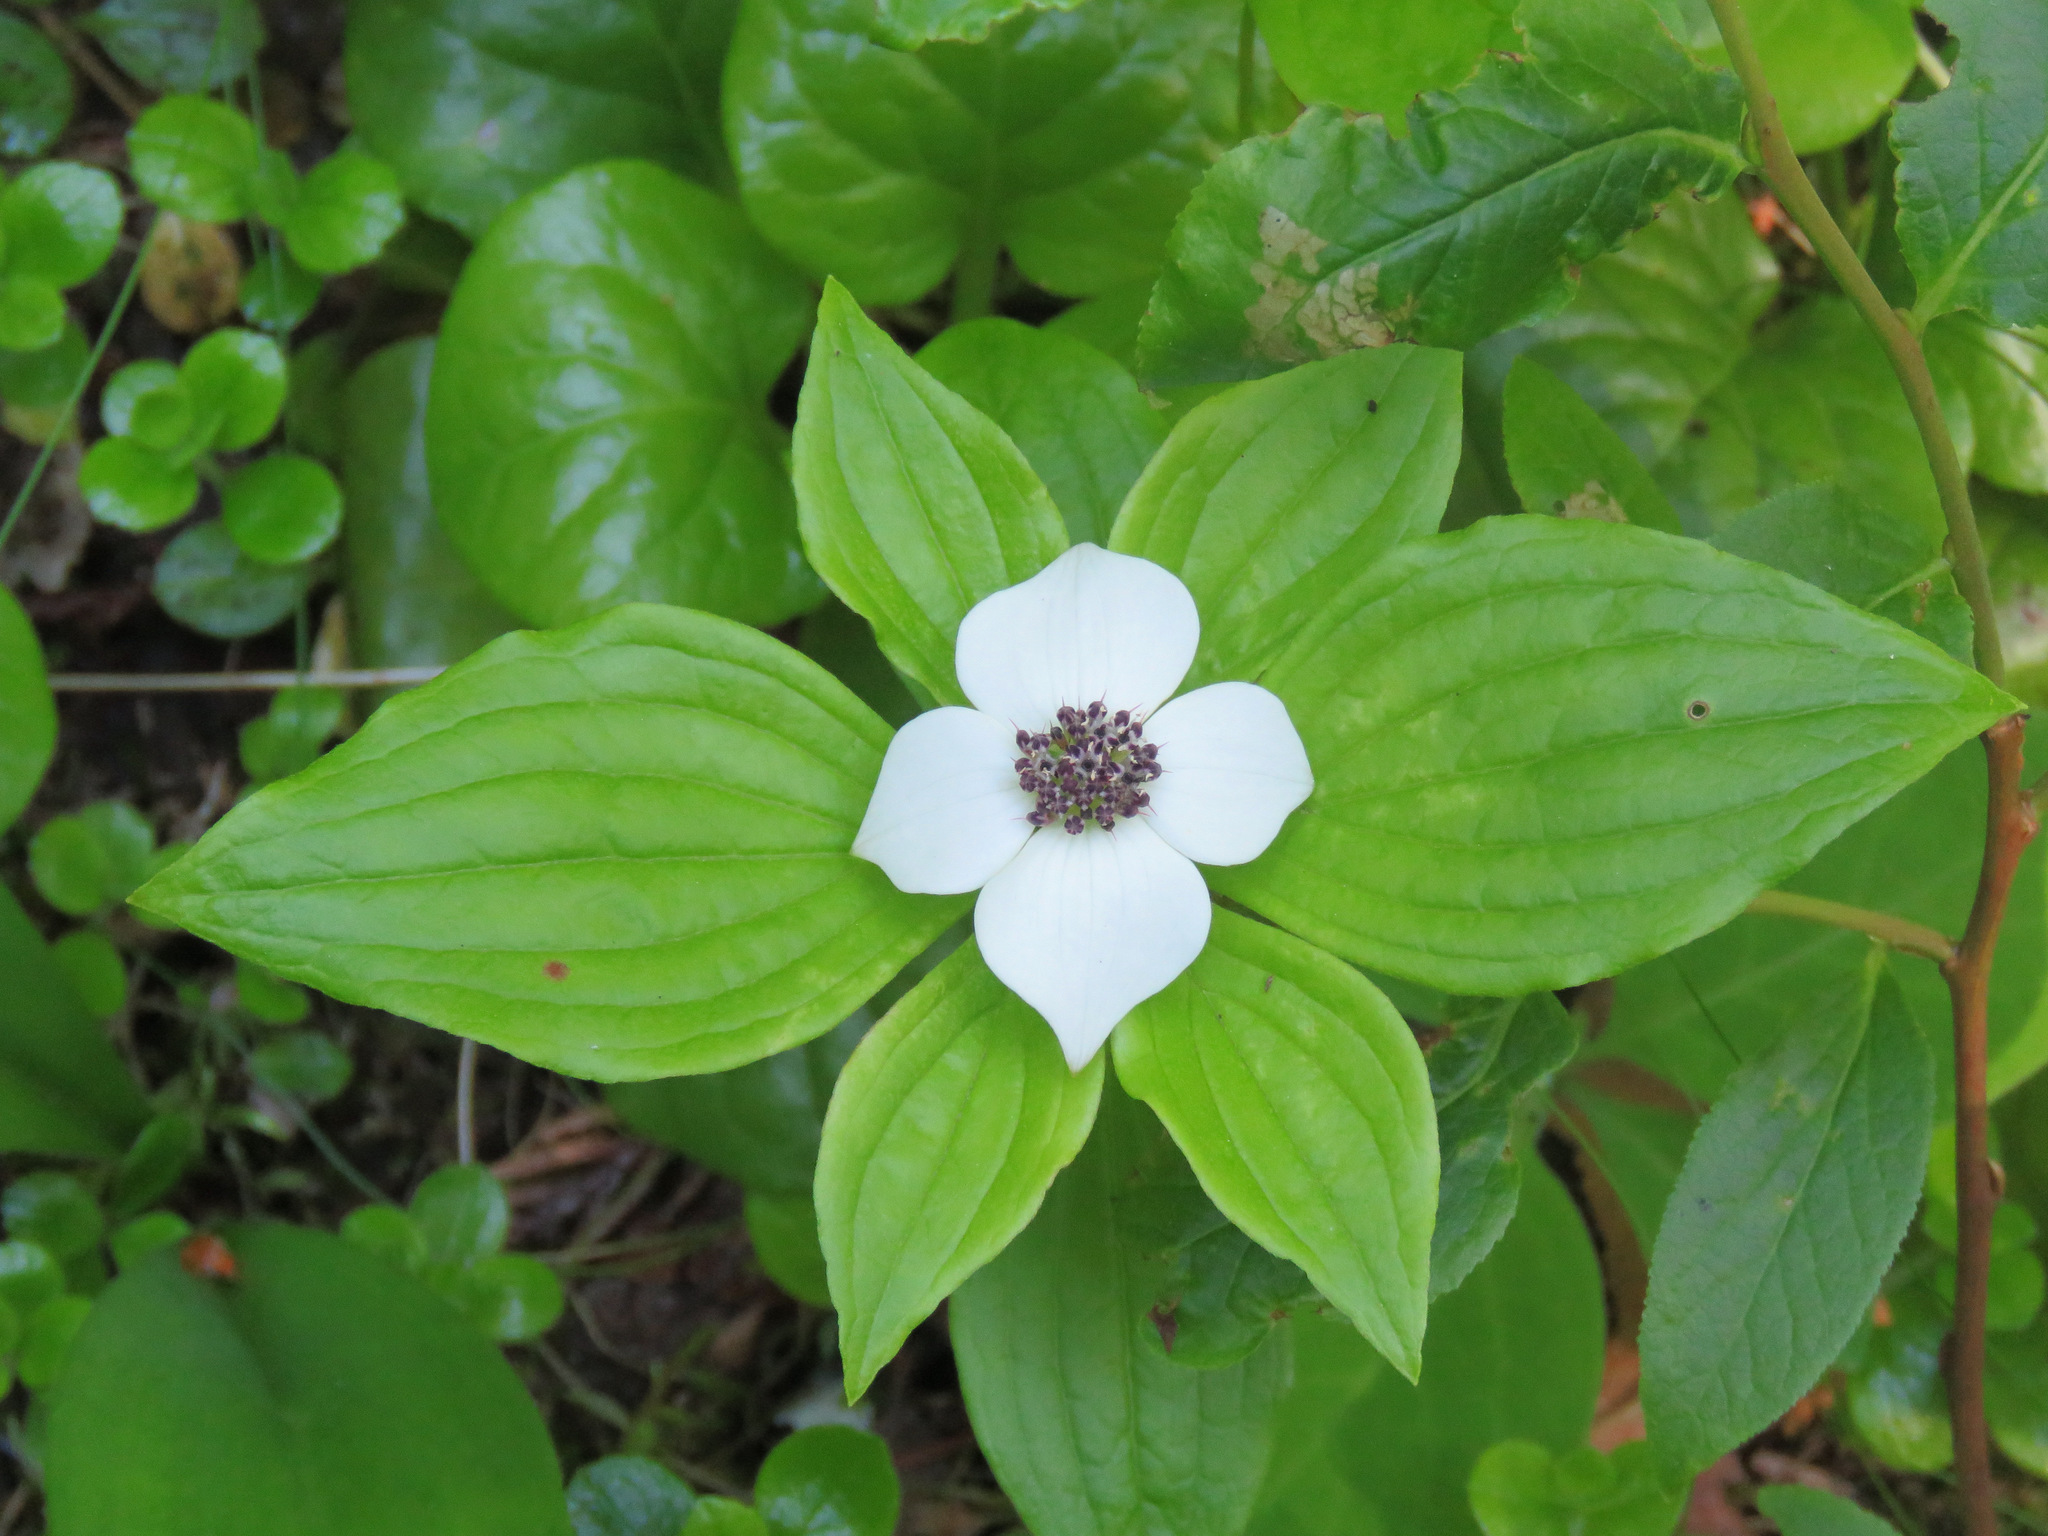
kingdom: Plantae
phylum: Tracheophyta
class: Magnoliopsida
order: Cornales
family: Cornaceae
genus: Cornus
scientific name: Cornus unalaschkensis
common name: Alaska bunchberry
